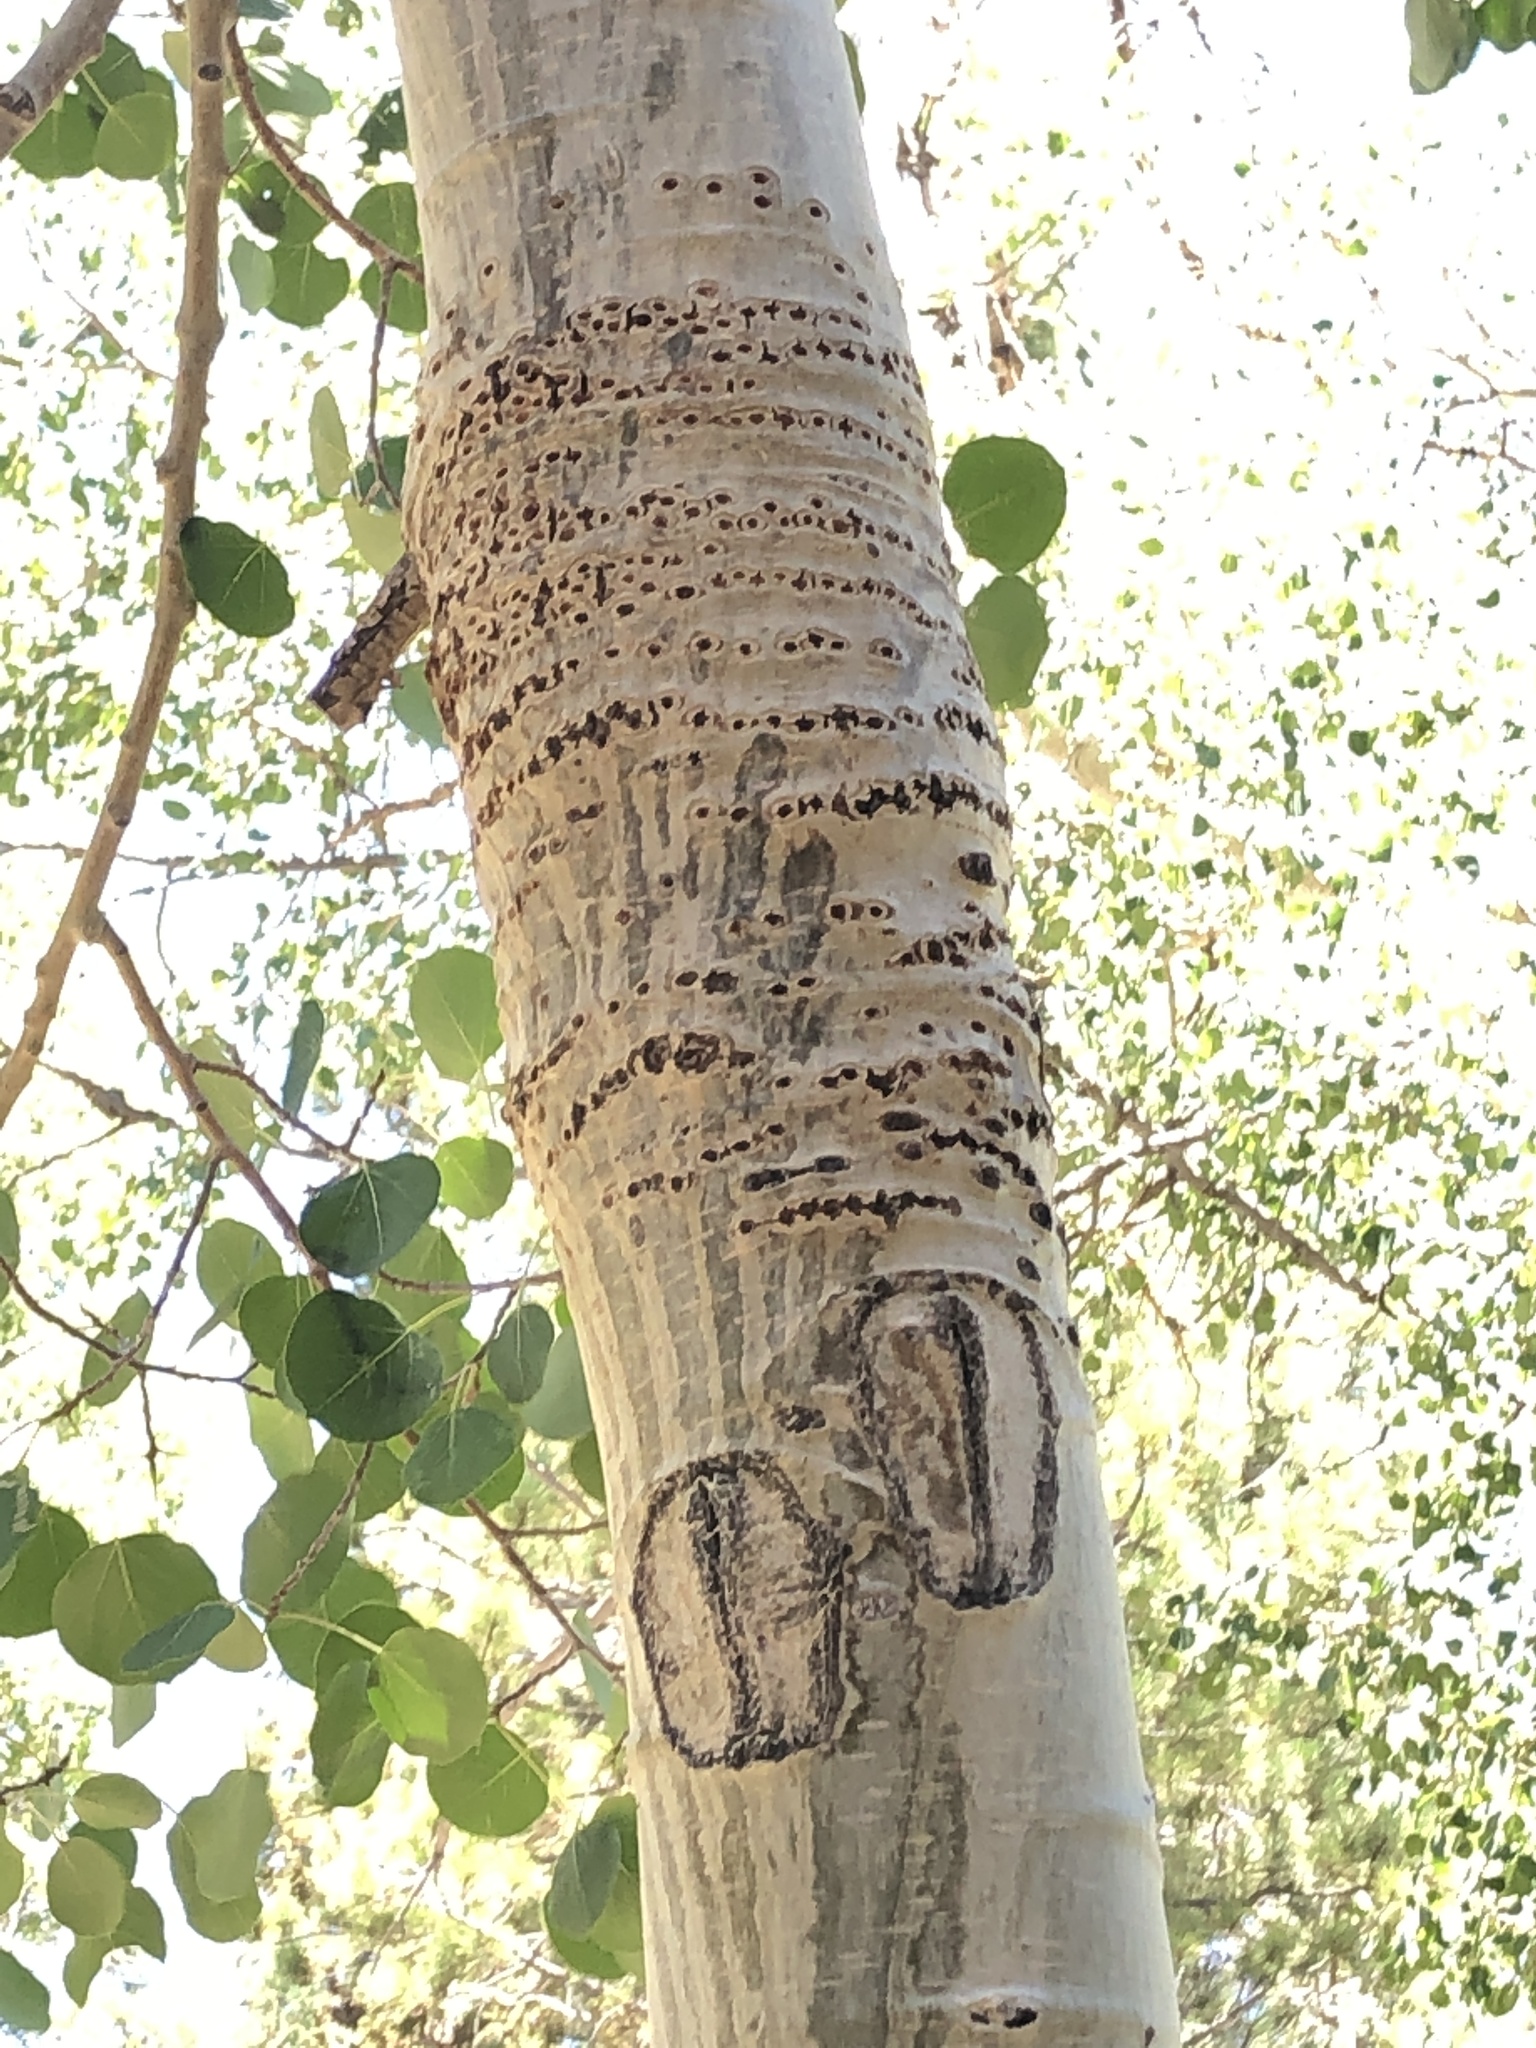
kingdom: Animalia
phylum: Chordata
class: Aves
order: Piciformes
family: Picidae
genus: Sphyrapicus
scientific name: Sphyrapicus
